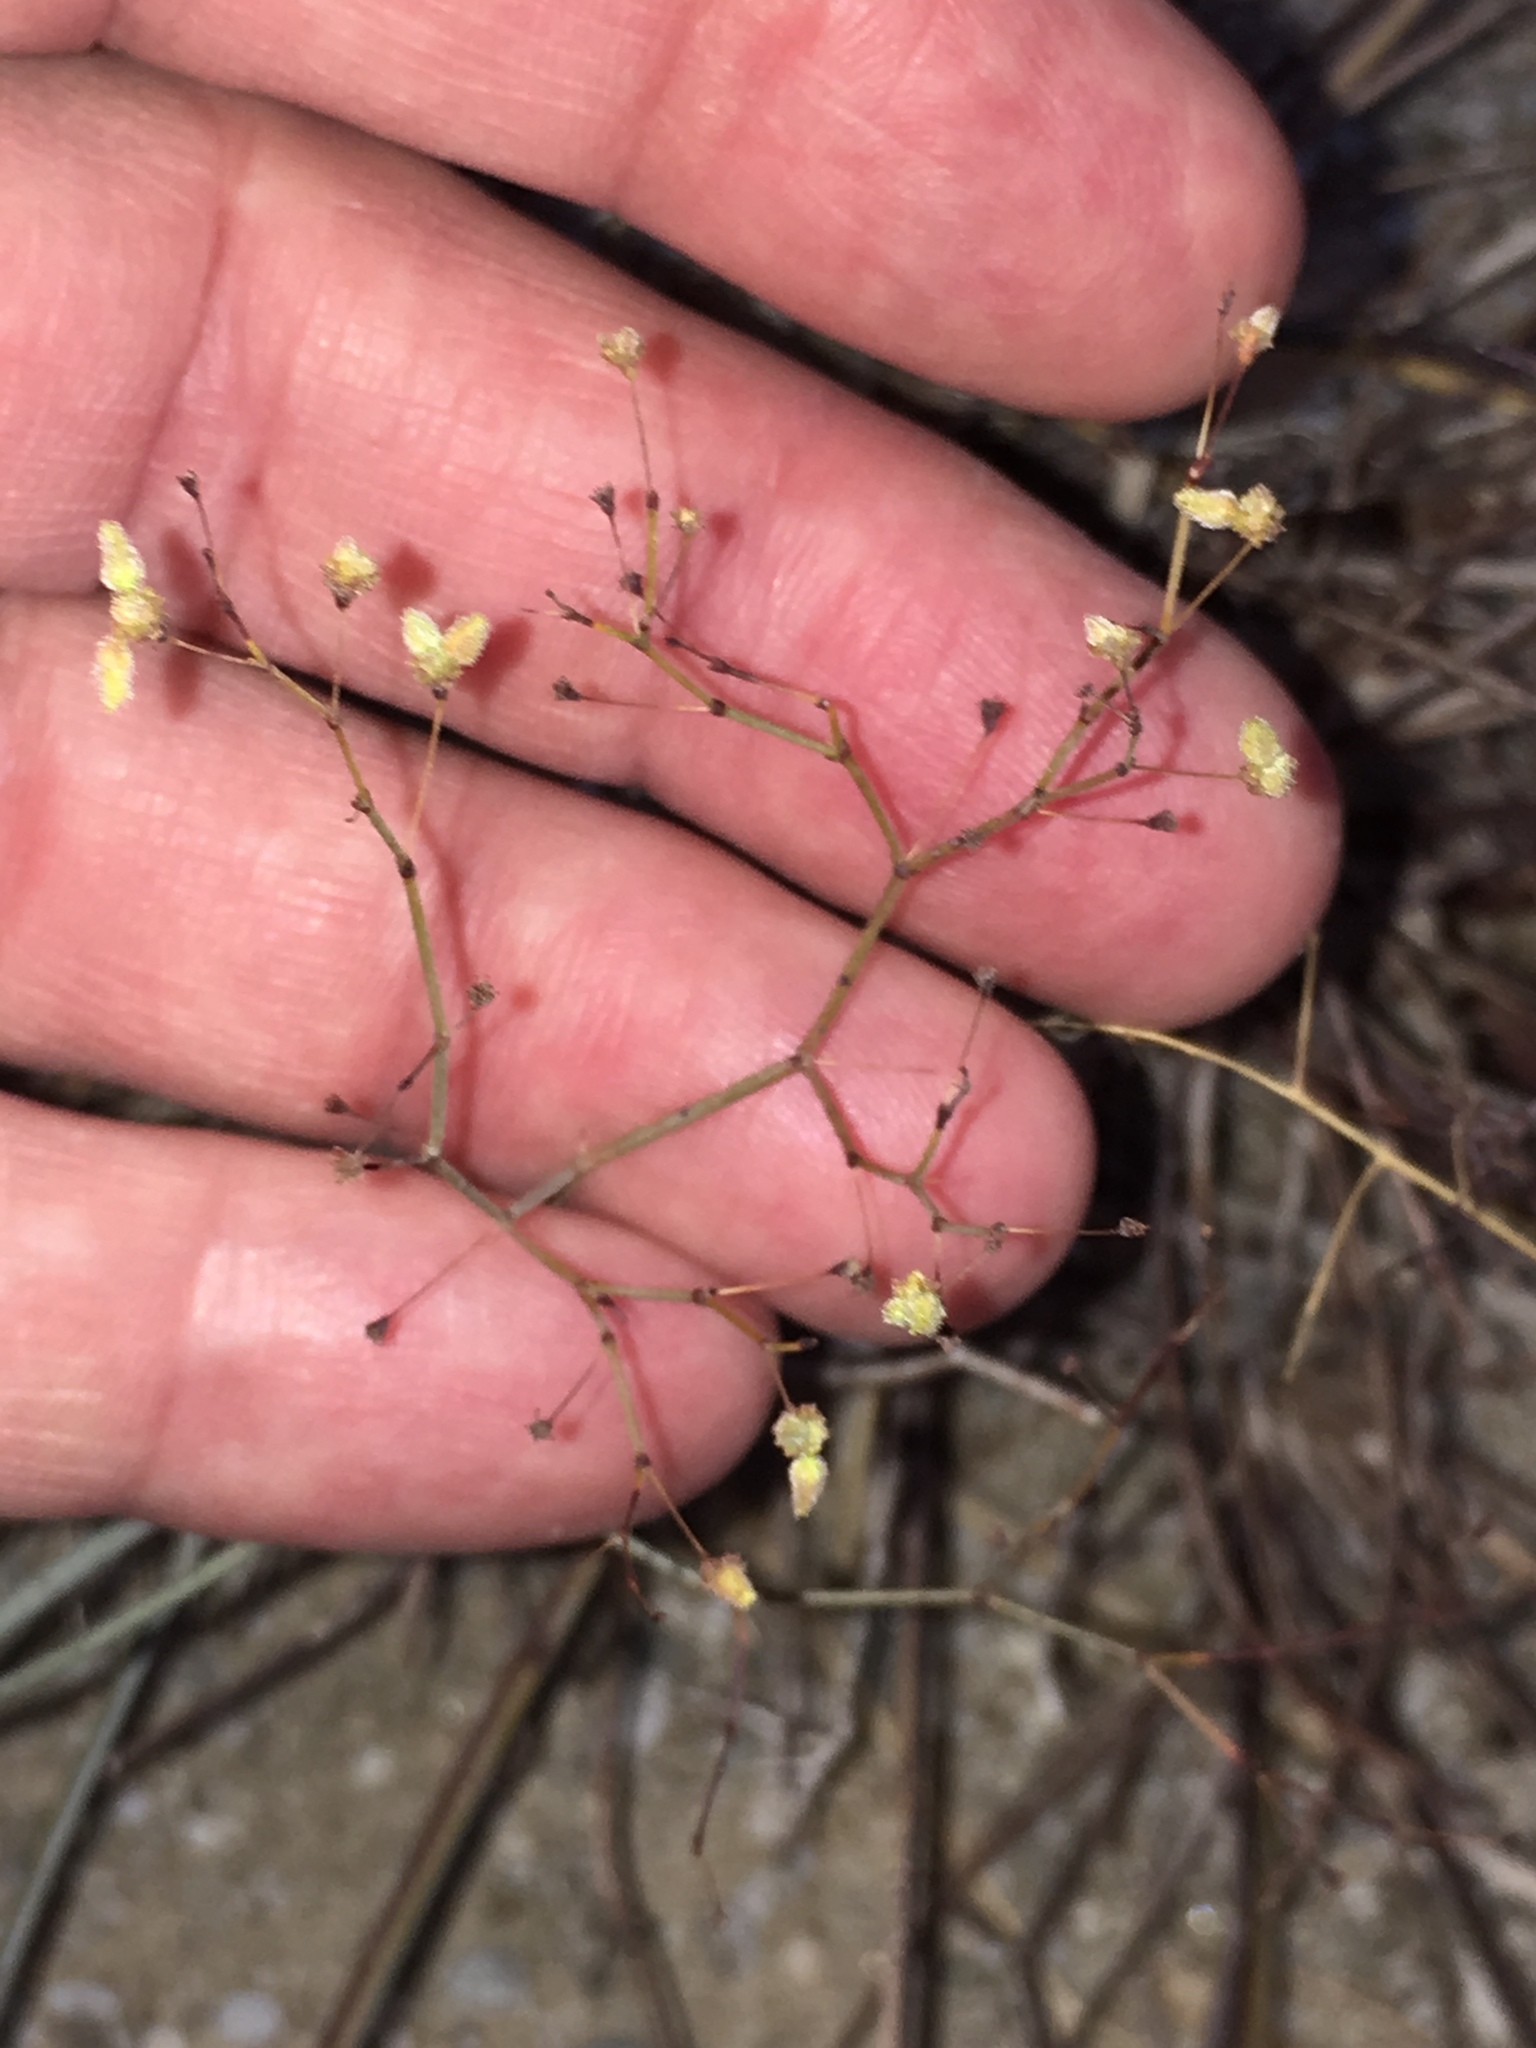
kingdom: Plantae
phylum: Tracheophyta
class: Magnoliopsida
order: Caryophyllales
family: Polygonaceae
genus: Eriogonum
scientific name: Eriogonum inflatum
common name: Desert trumpet
